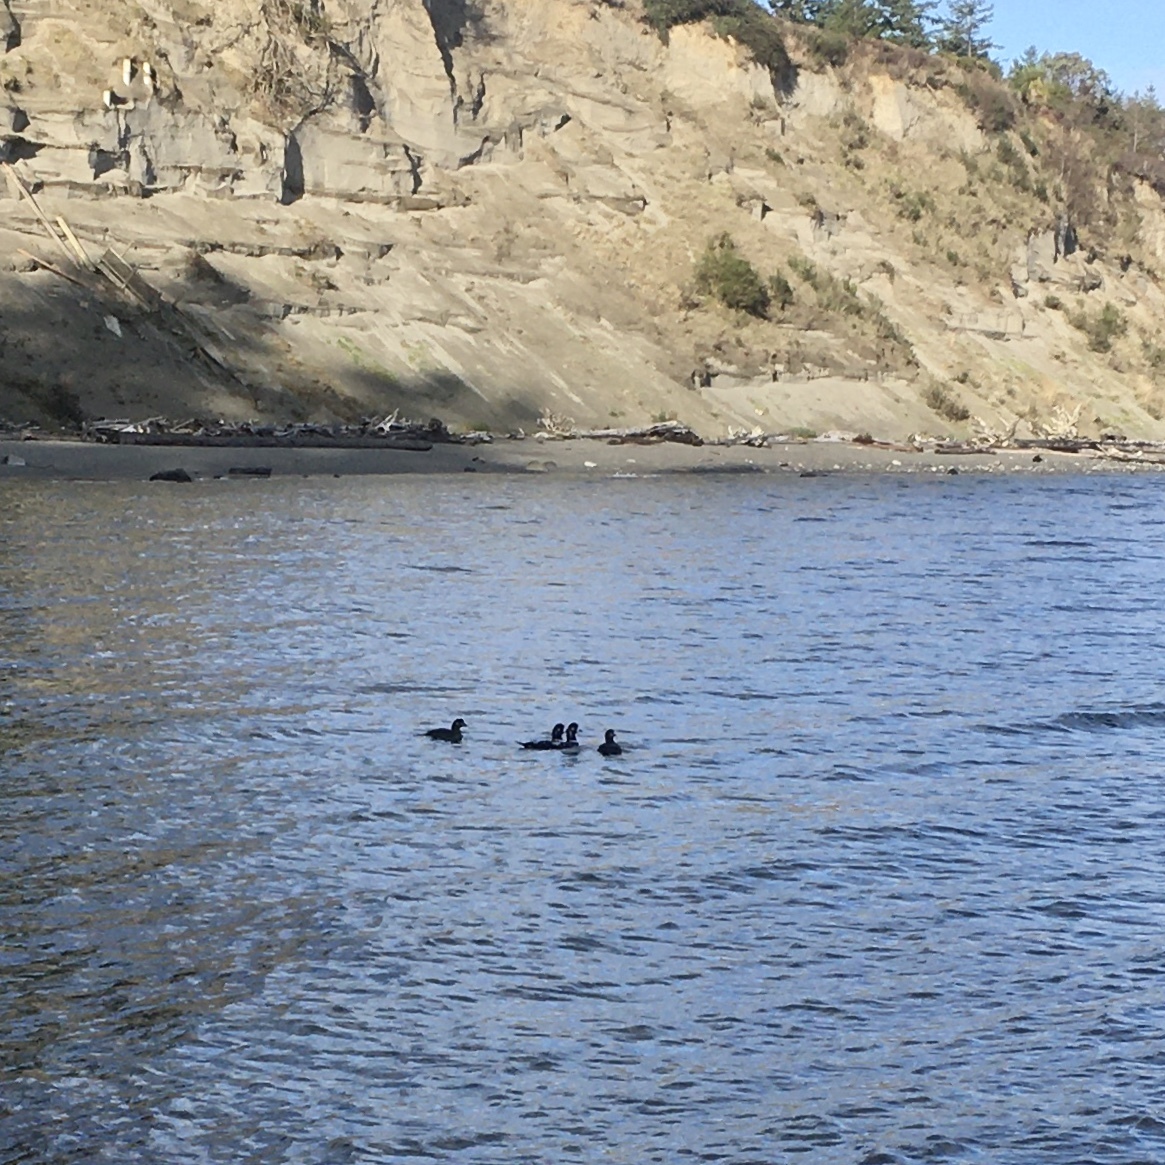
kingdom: Animalia
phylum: Chordata
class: Aves
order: Anseriformes
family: Anatidae
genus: Histrionicus
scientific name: Histrionicus histrionicus
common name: Harlequin duck
